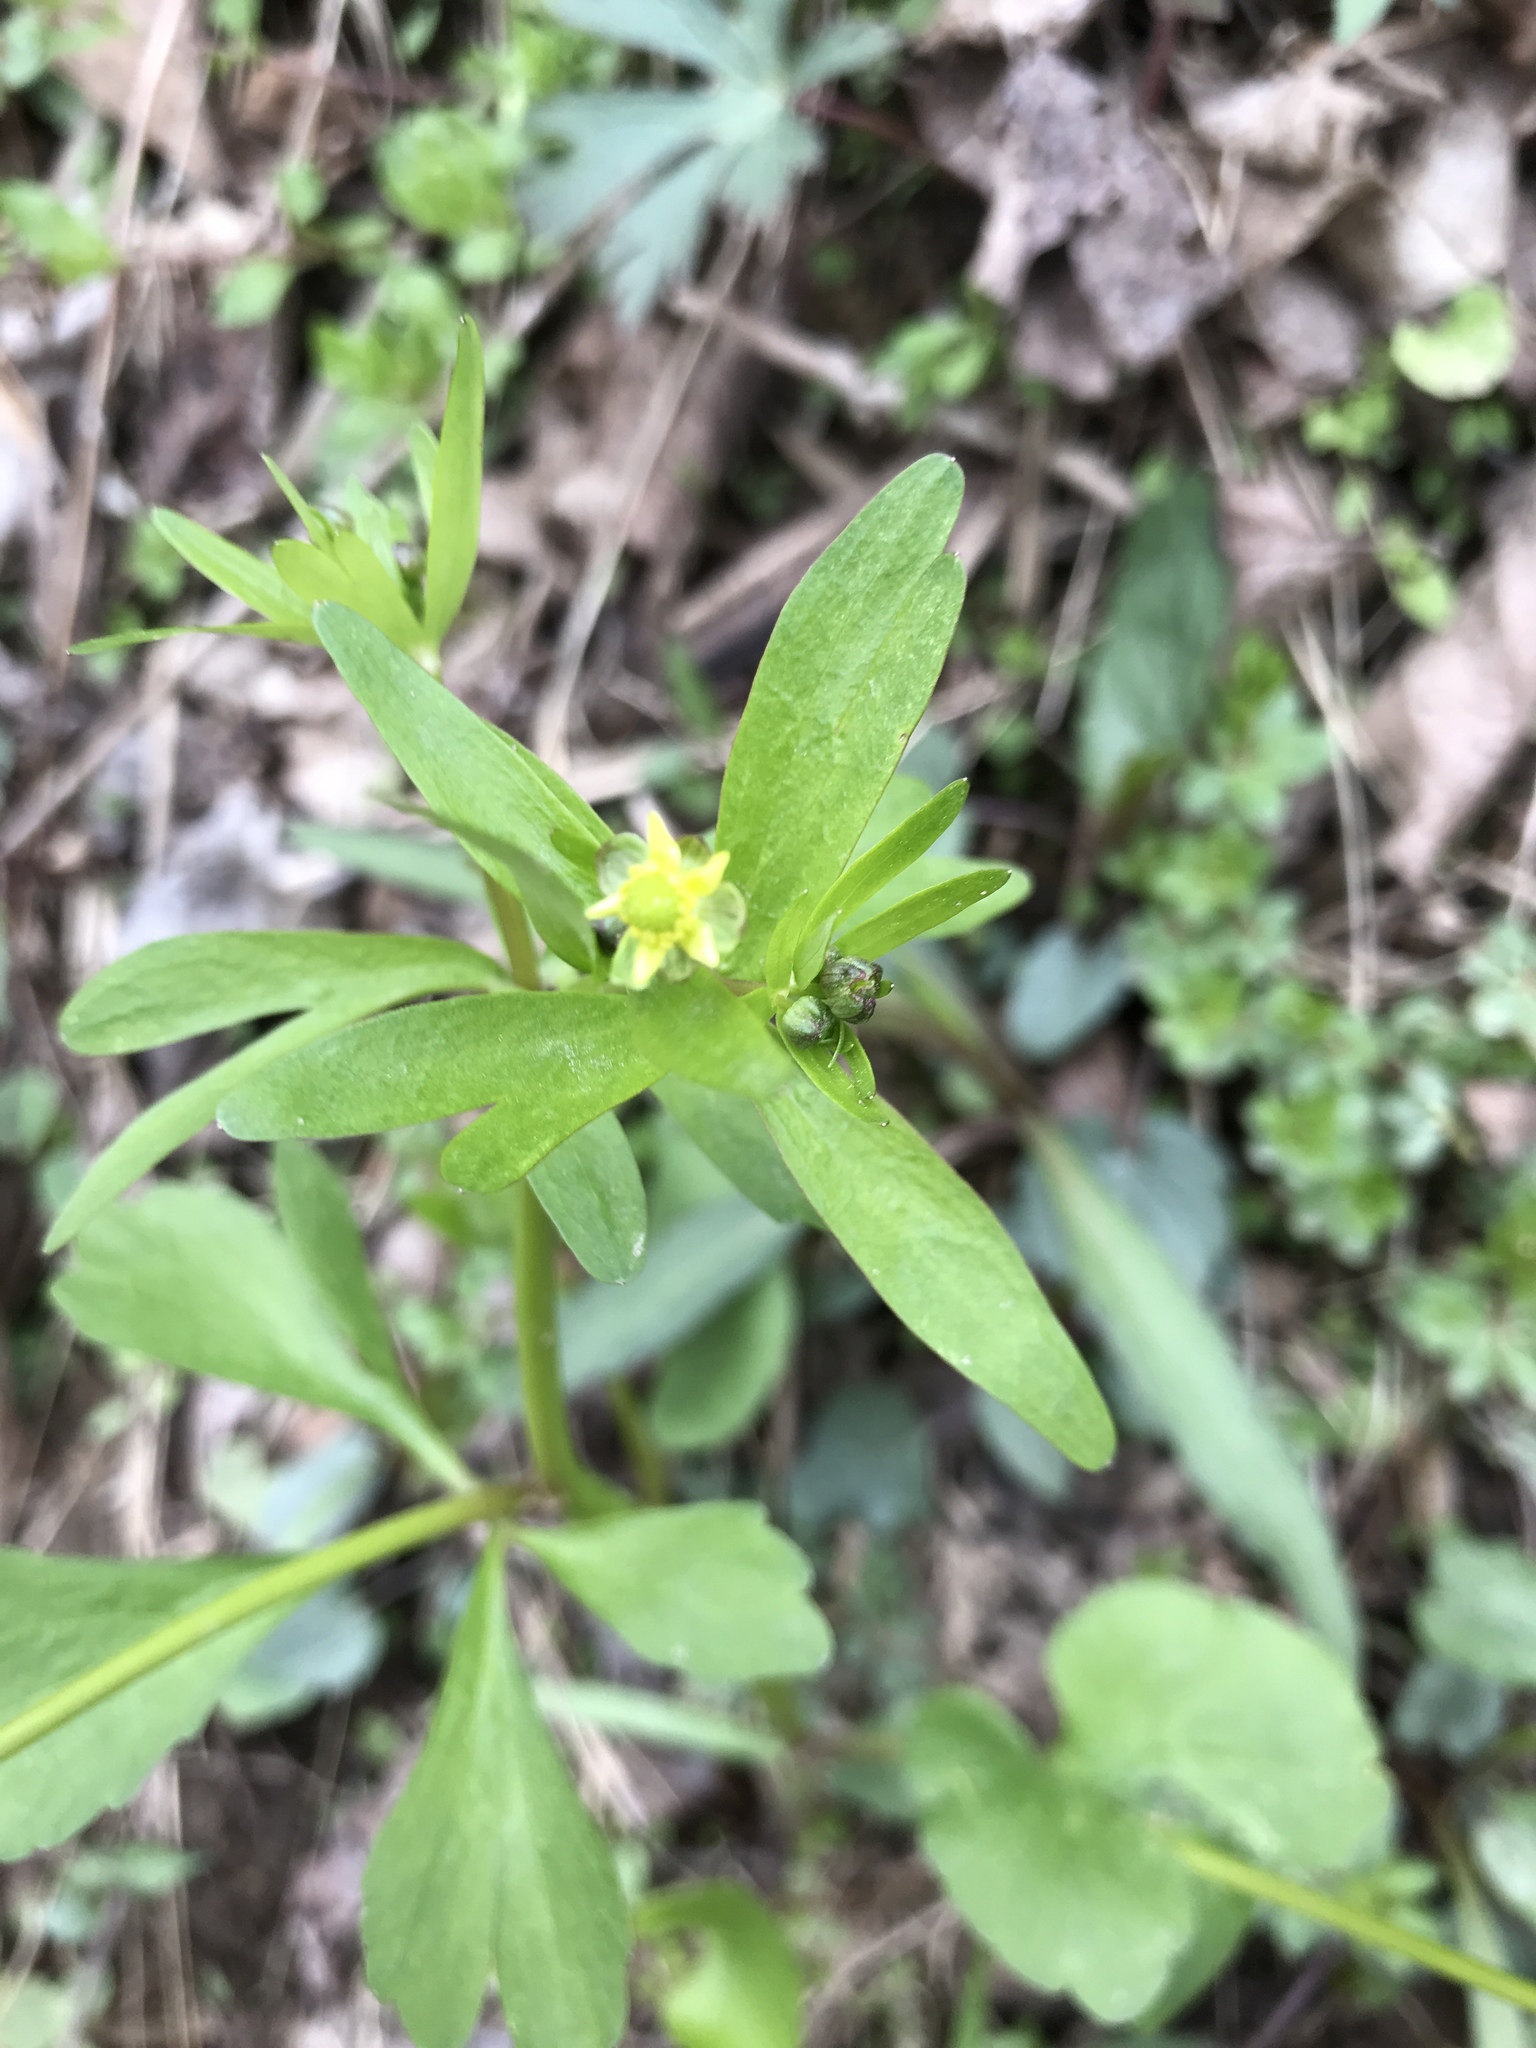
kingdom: Plantae
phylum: Tracheophyta
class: Magnoliopsida
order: Ranunculales
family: Ranunculaceae
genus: Ranunculus
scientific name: Ranunculus abortivus
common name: Early wood buttercup
